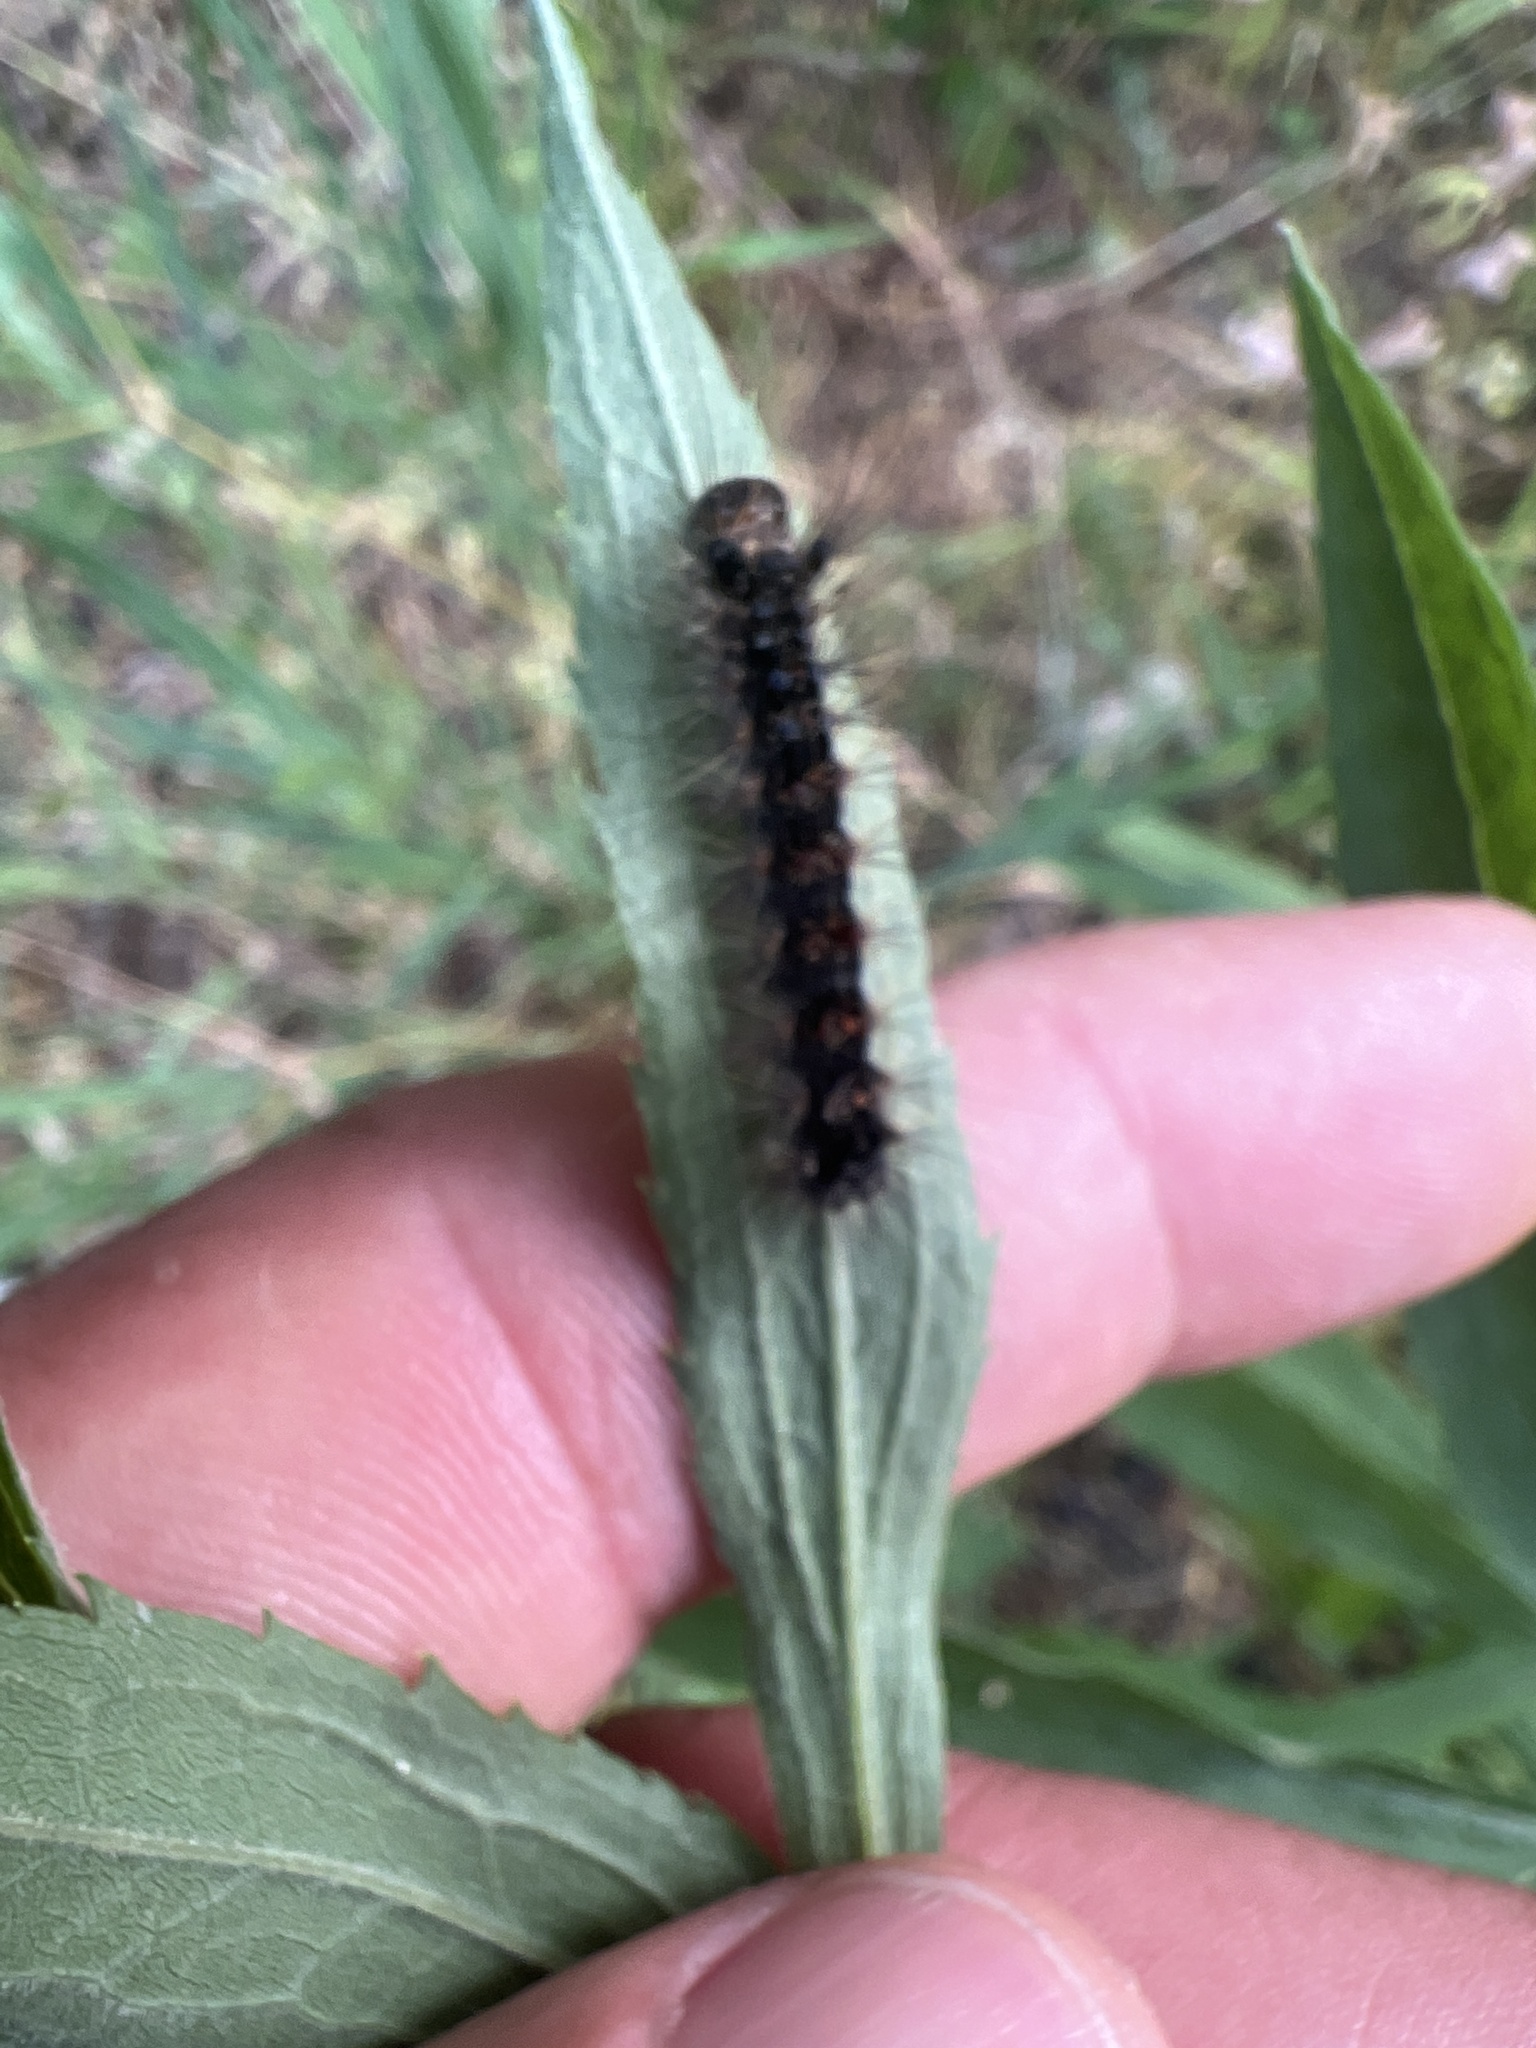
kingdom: Animalia
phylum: Arthropoda
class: Insecta
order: Lepidoptera
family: Erebidae
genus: Lymantria
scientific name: Lymantria dispar
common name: Gypsy moth
